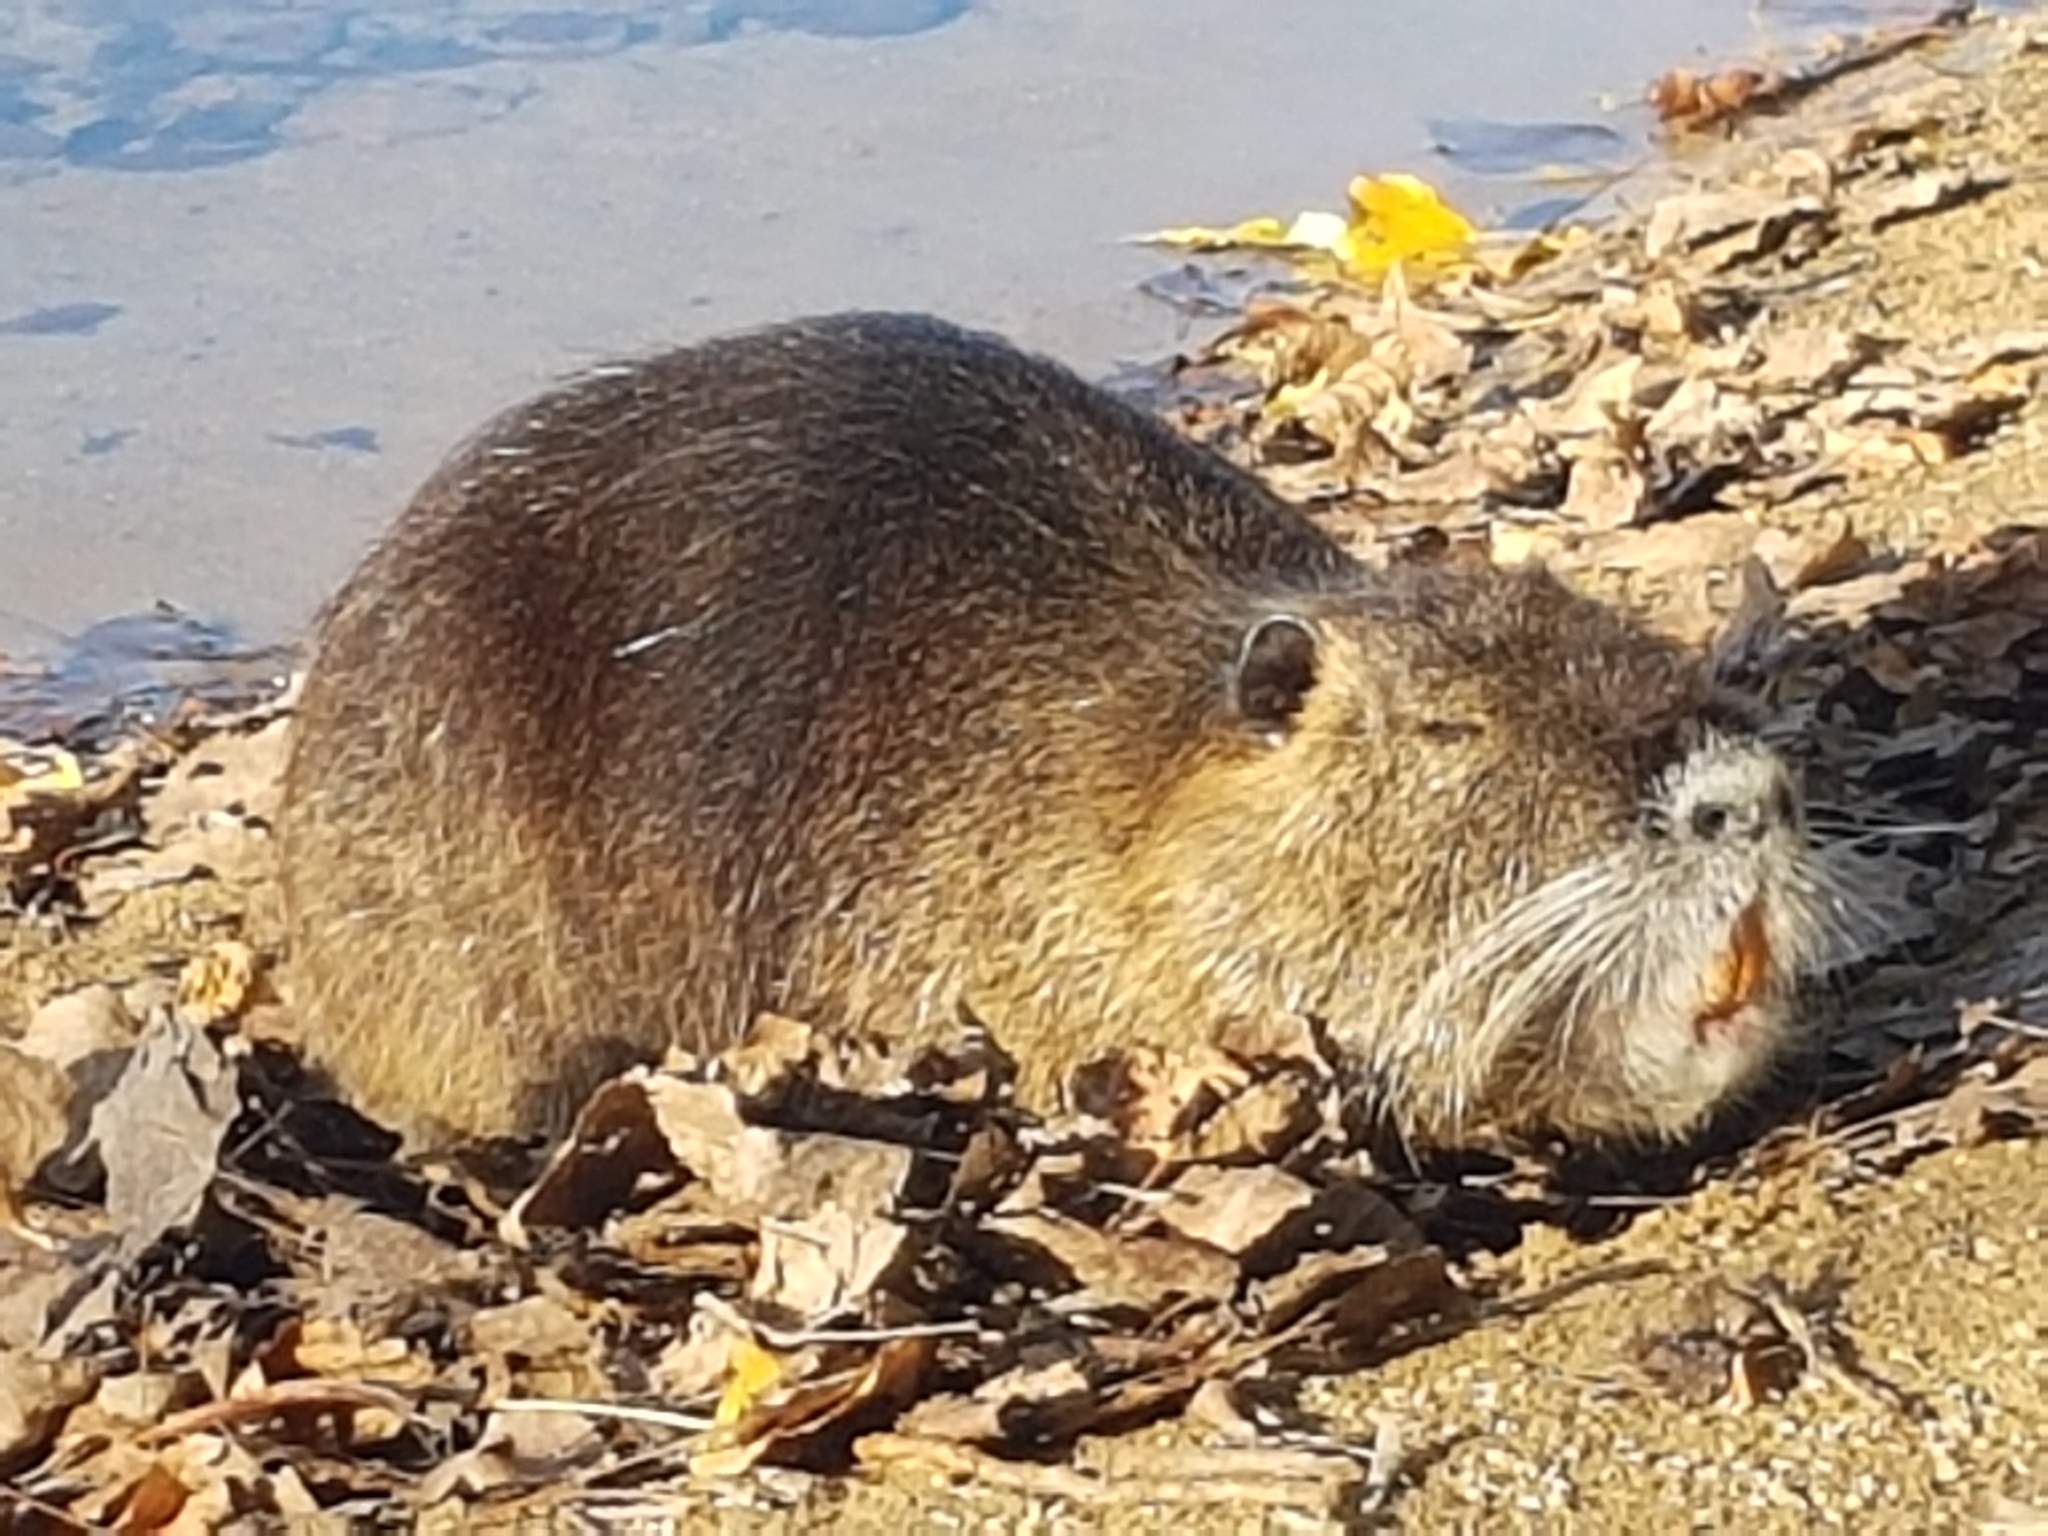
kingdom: Animalia
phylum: Chordata
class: Mammalia
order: Rodentia
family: Myocastoridae
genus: Myocastor
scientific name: Myocastor coypus
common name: Coypu
